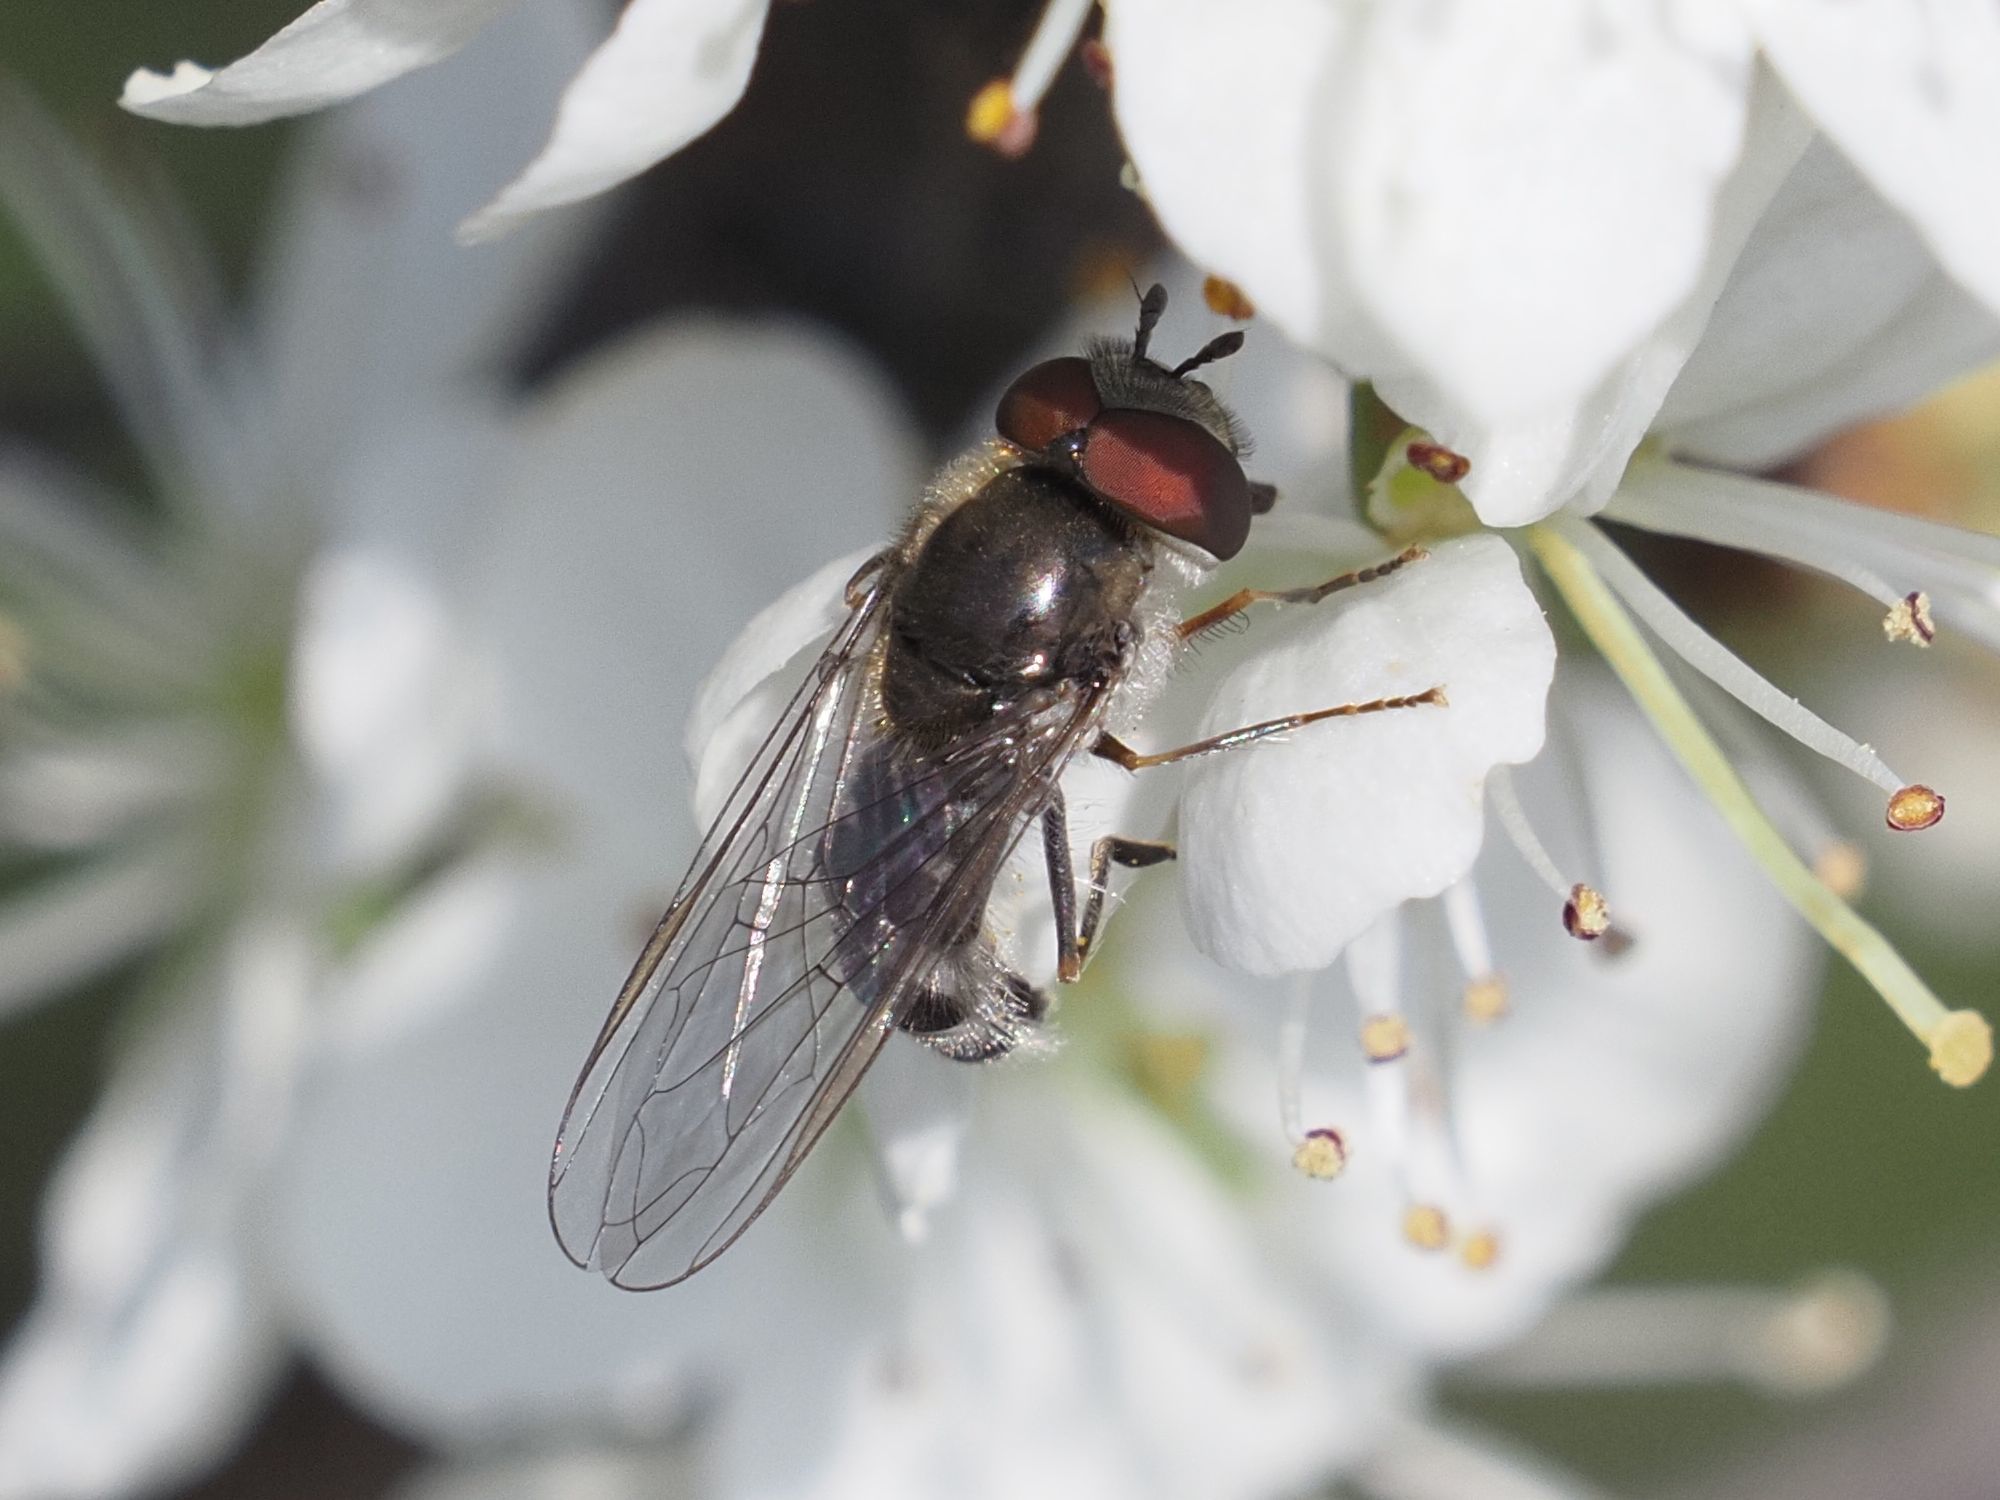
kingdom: Animalia
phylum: Arthropoda
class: Insecta
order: Diptera
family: Syrphidae
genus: Platycheirus
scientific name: Platycheirus ambiguum
